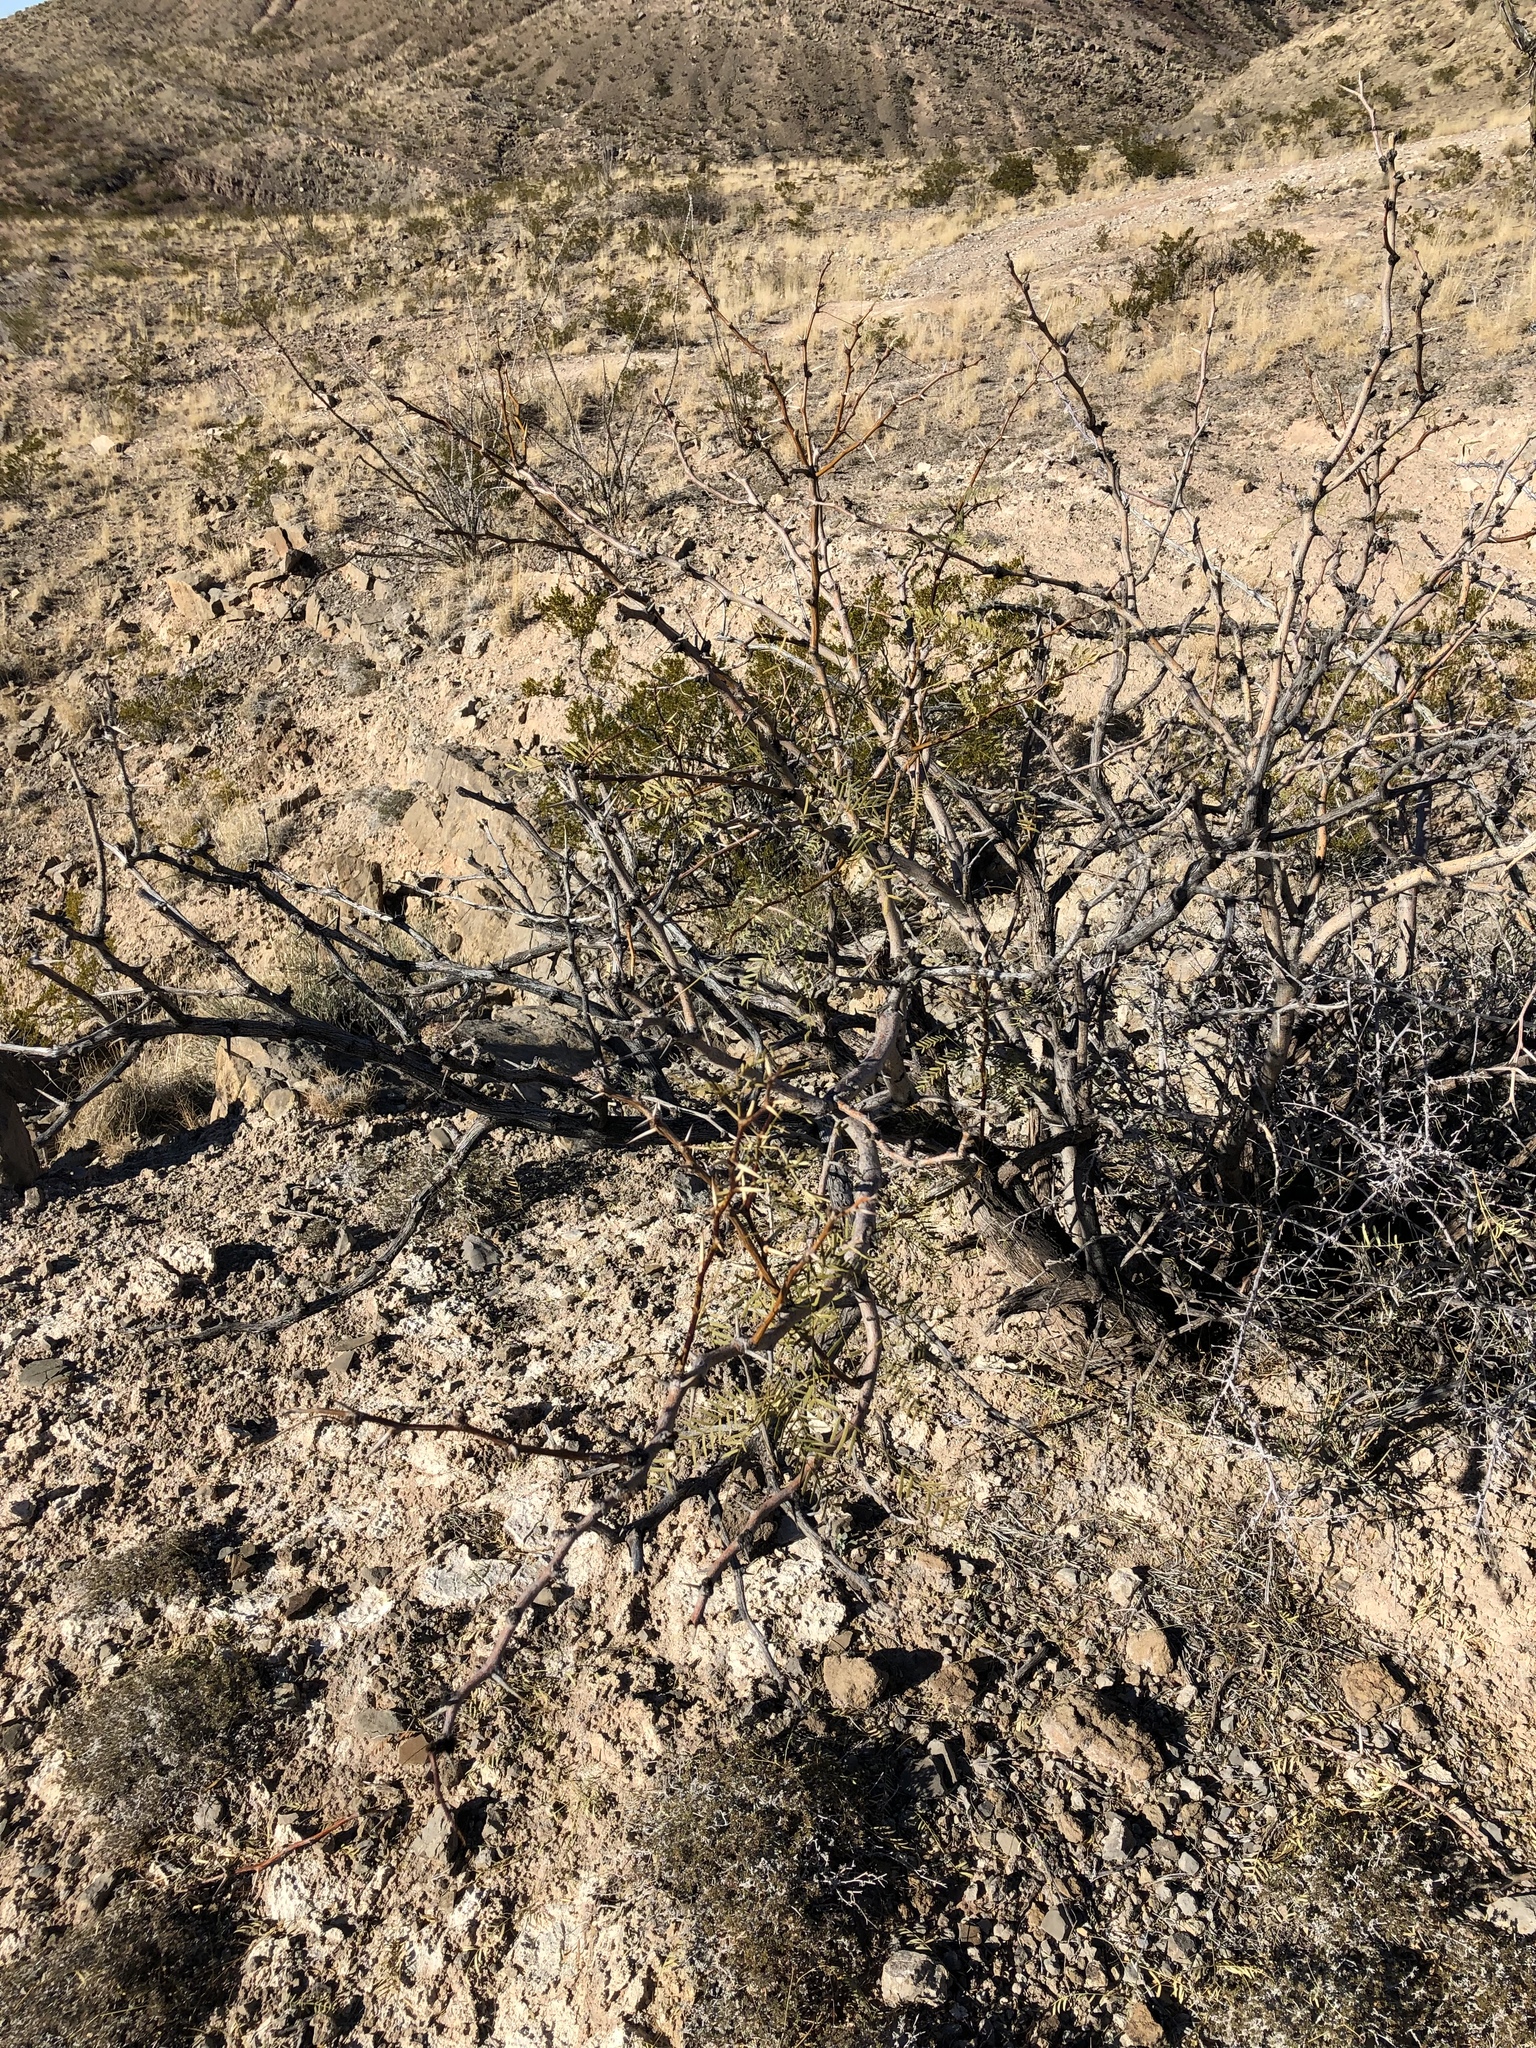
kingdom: Plantae
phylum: Tracheophyta
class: Magnoliopsida
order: Fabales
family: Fabaceae
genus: Prosopis
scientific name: Prosopis glandulosa
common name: Honey mesquite
